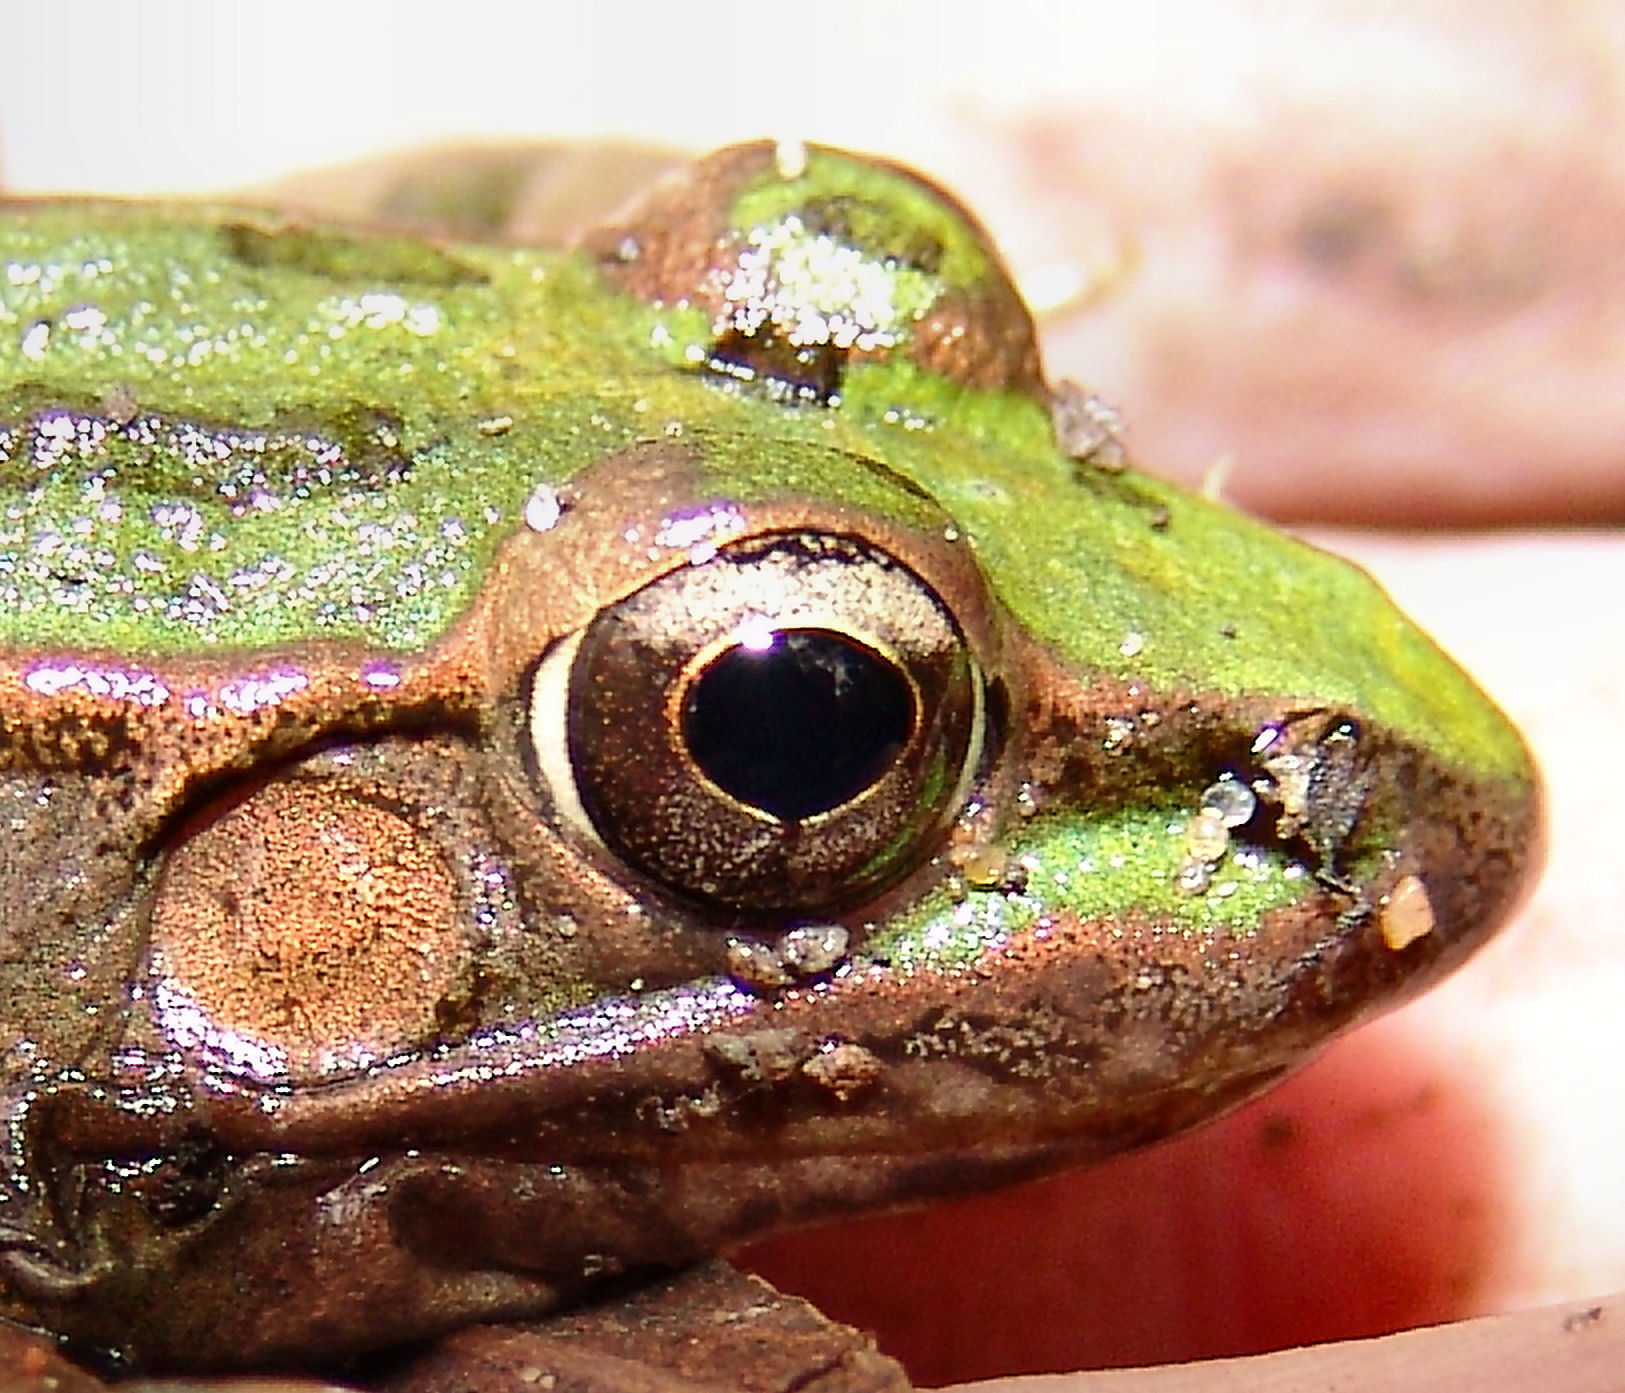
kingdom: Animalia
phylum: Chordata
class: Amphibia
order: Anura
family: Ranidae
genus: Lithobates
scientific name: Lithobates sphenocephalus
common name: Southern leopard frog
